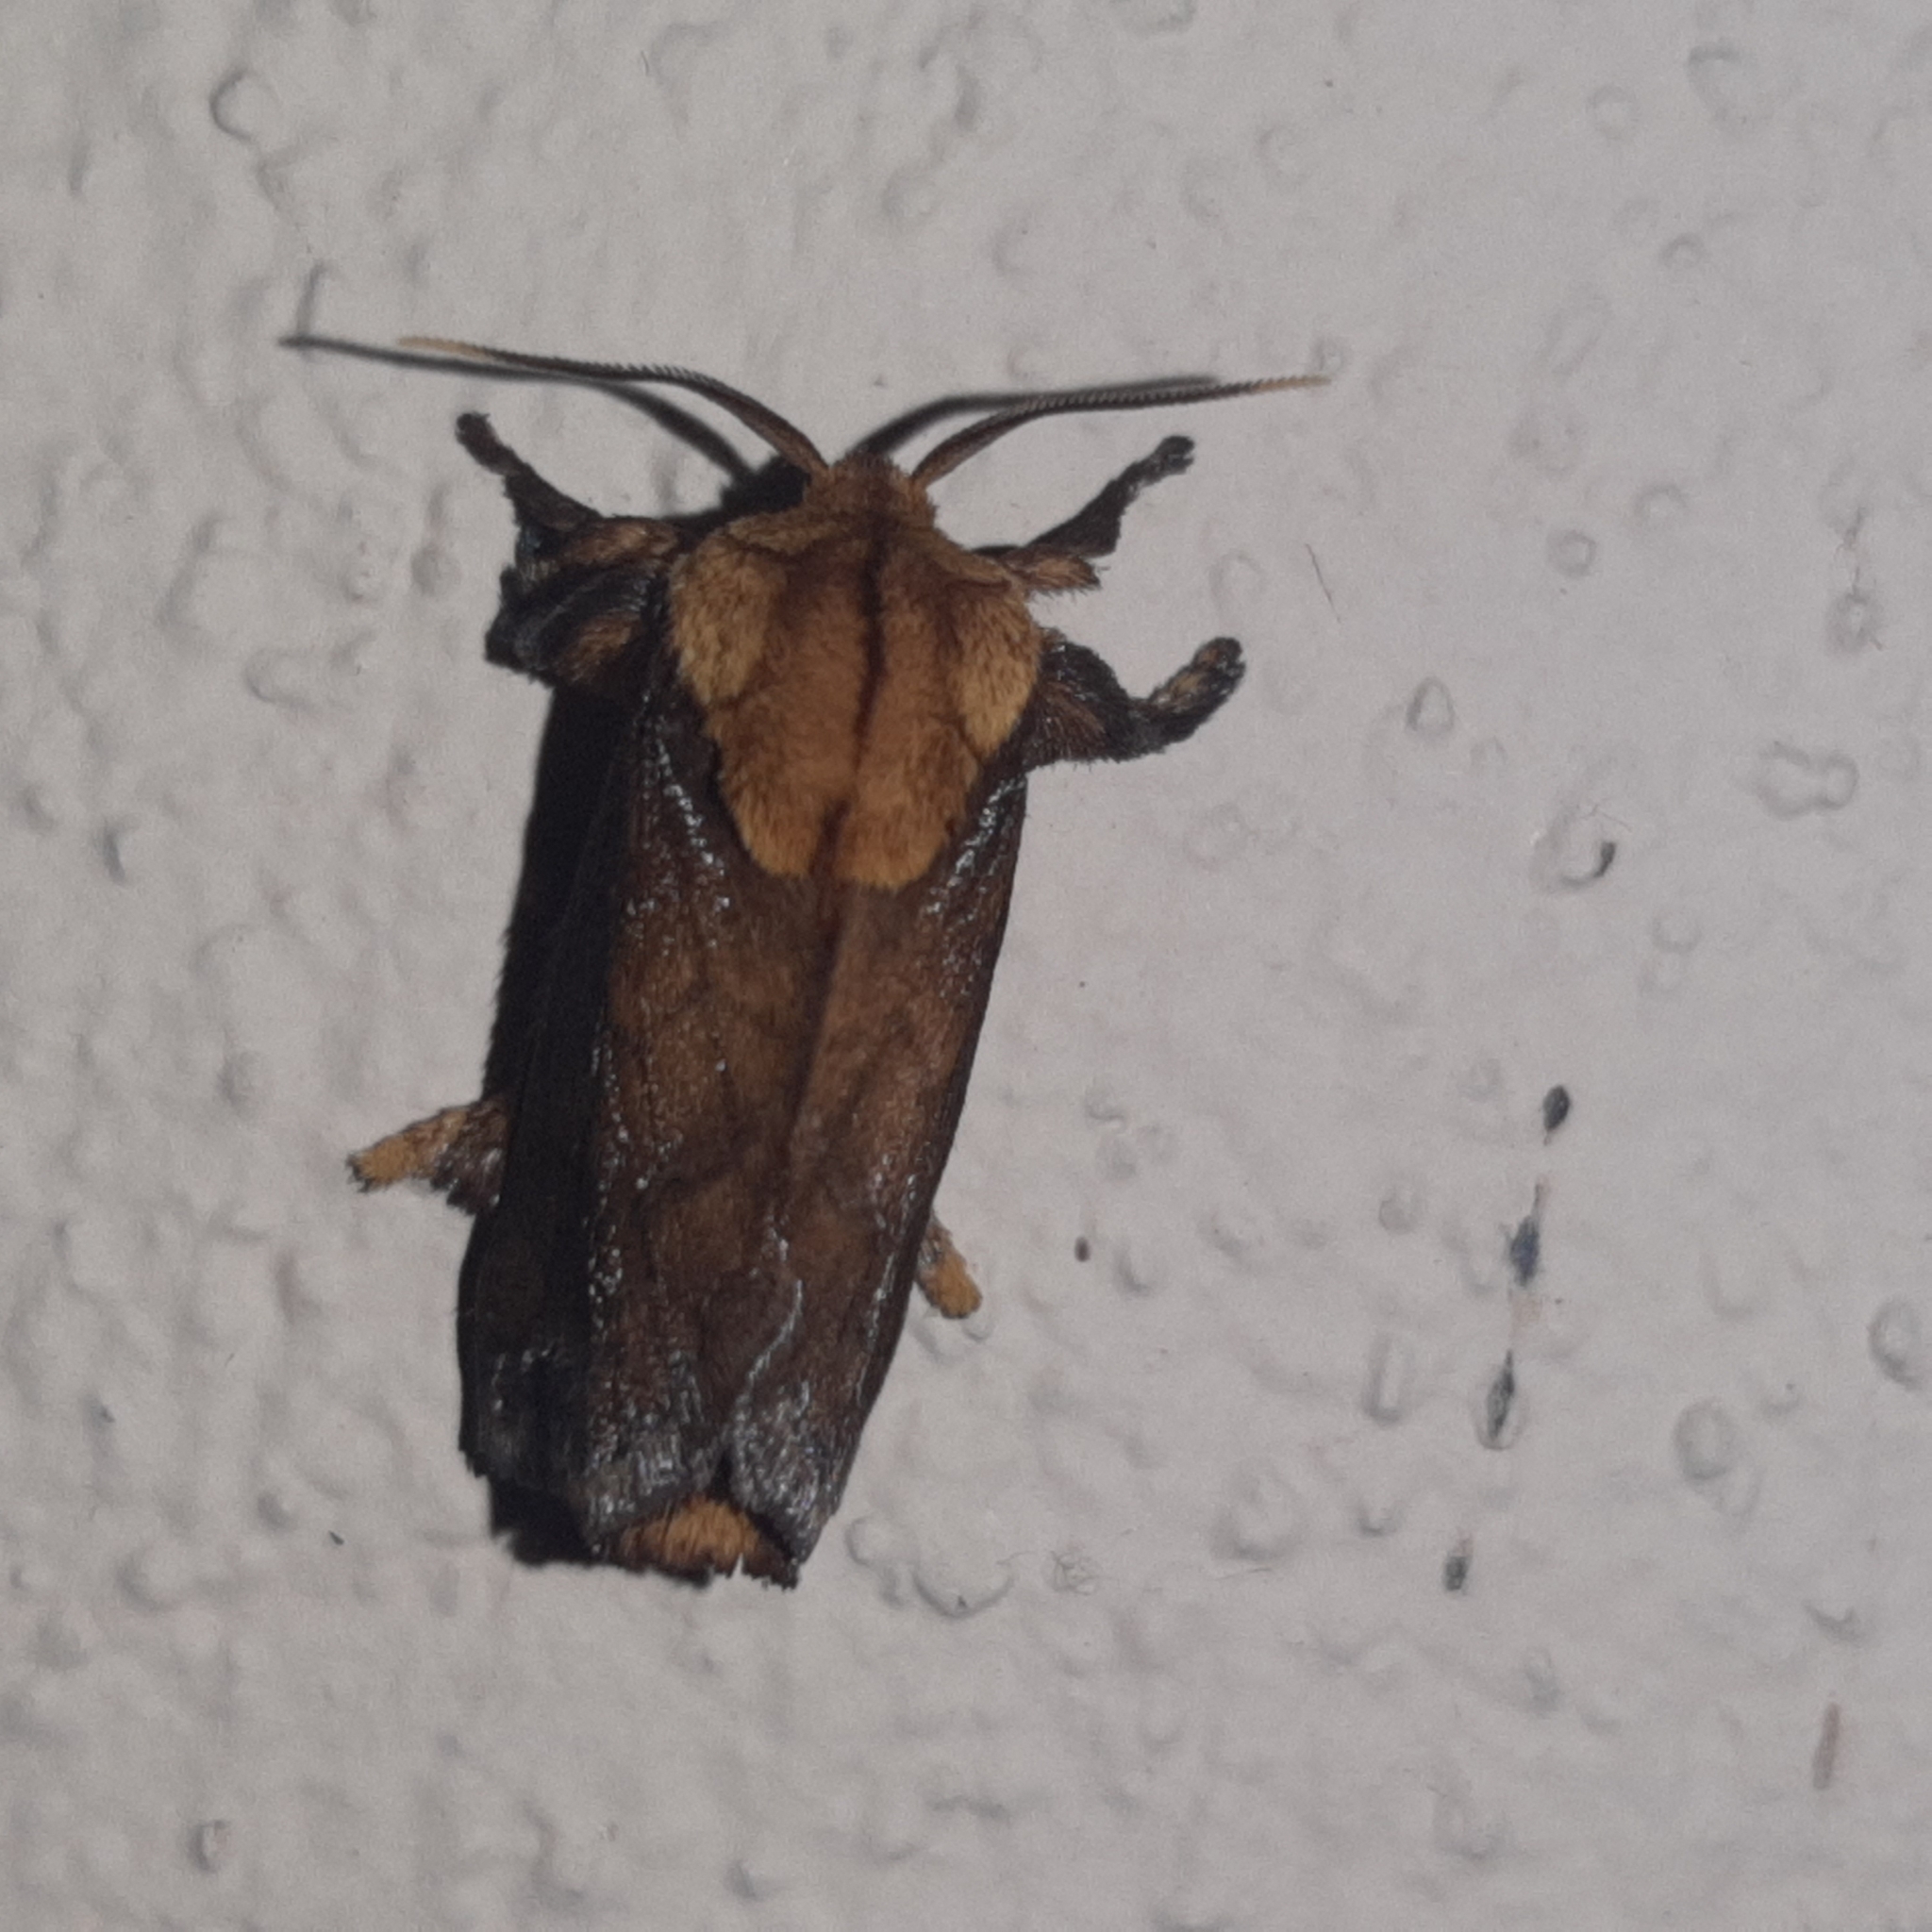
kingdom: Animalia
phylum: Arthropoda
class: Insecta
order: Lepidoptera
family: Limacodidae
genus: Miresa
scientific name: Miresa argentea
